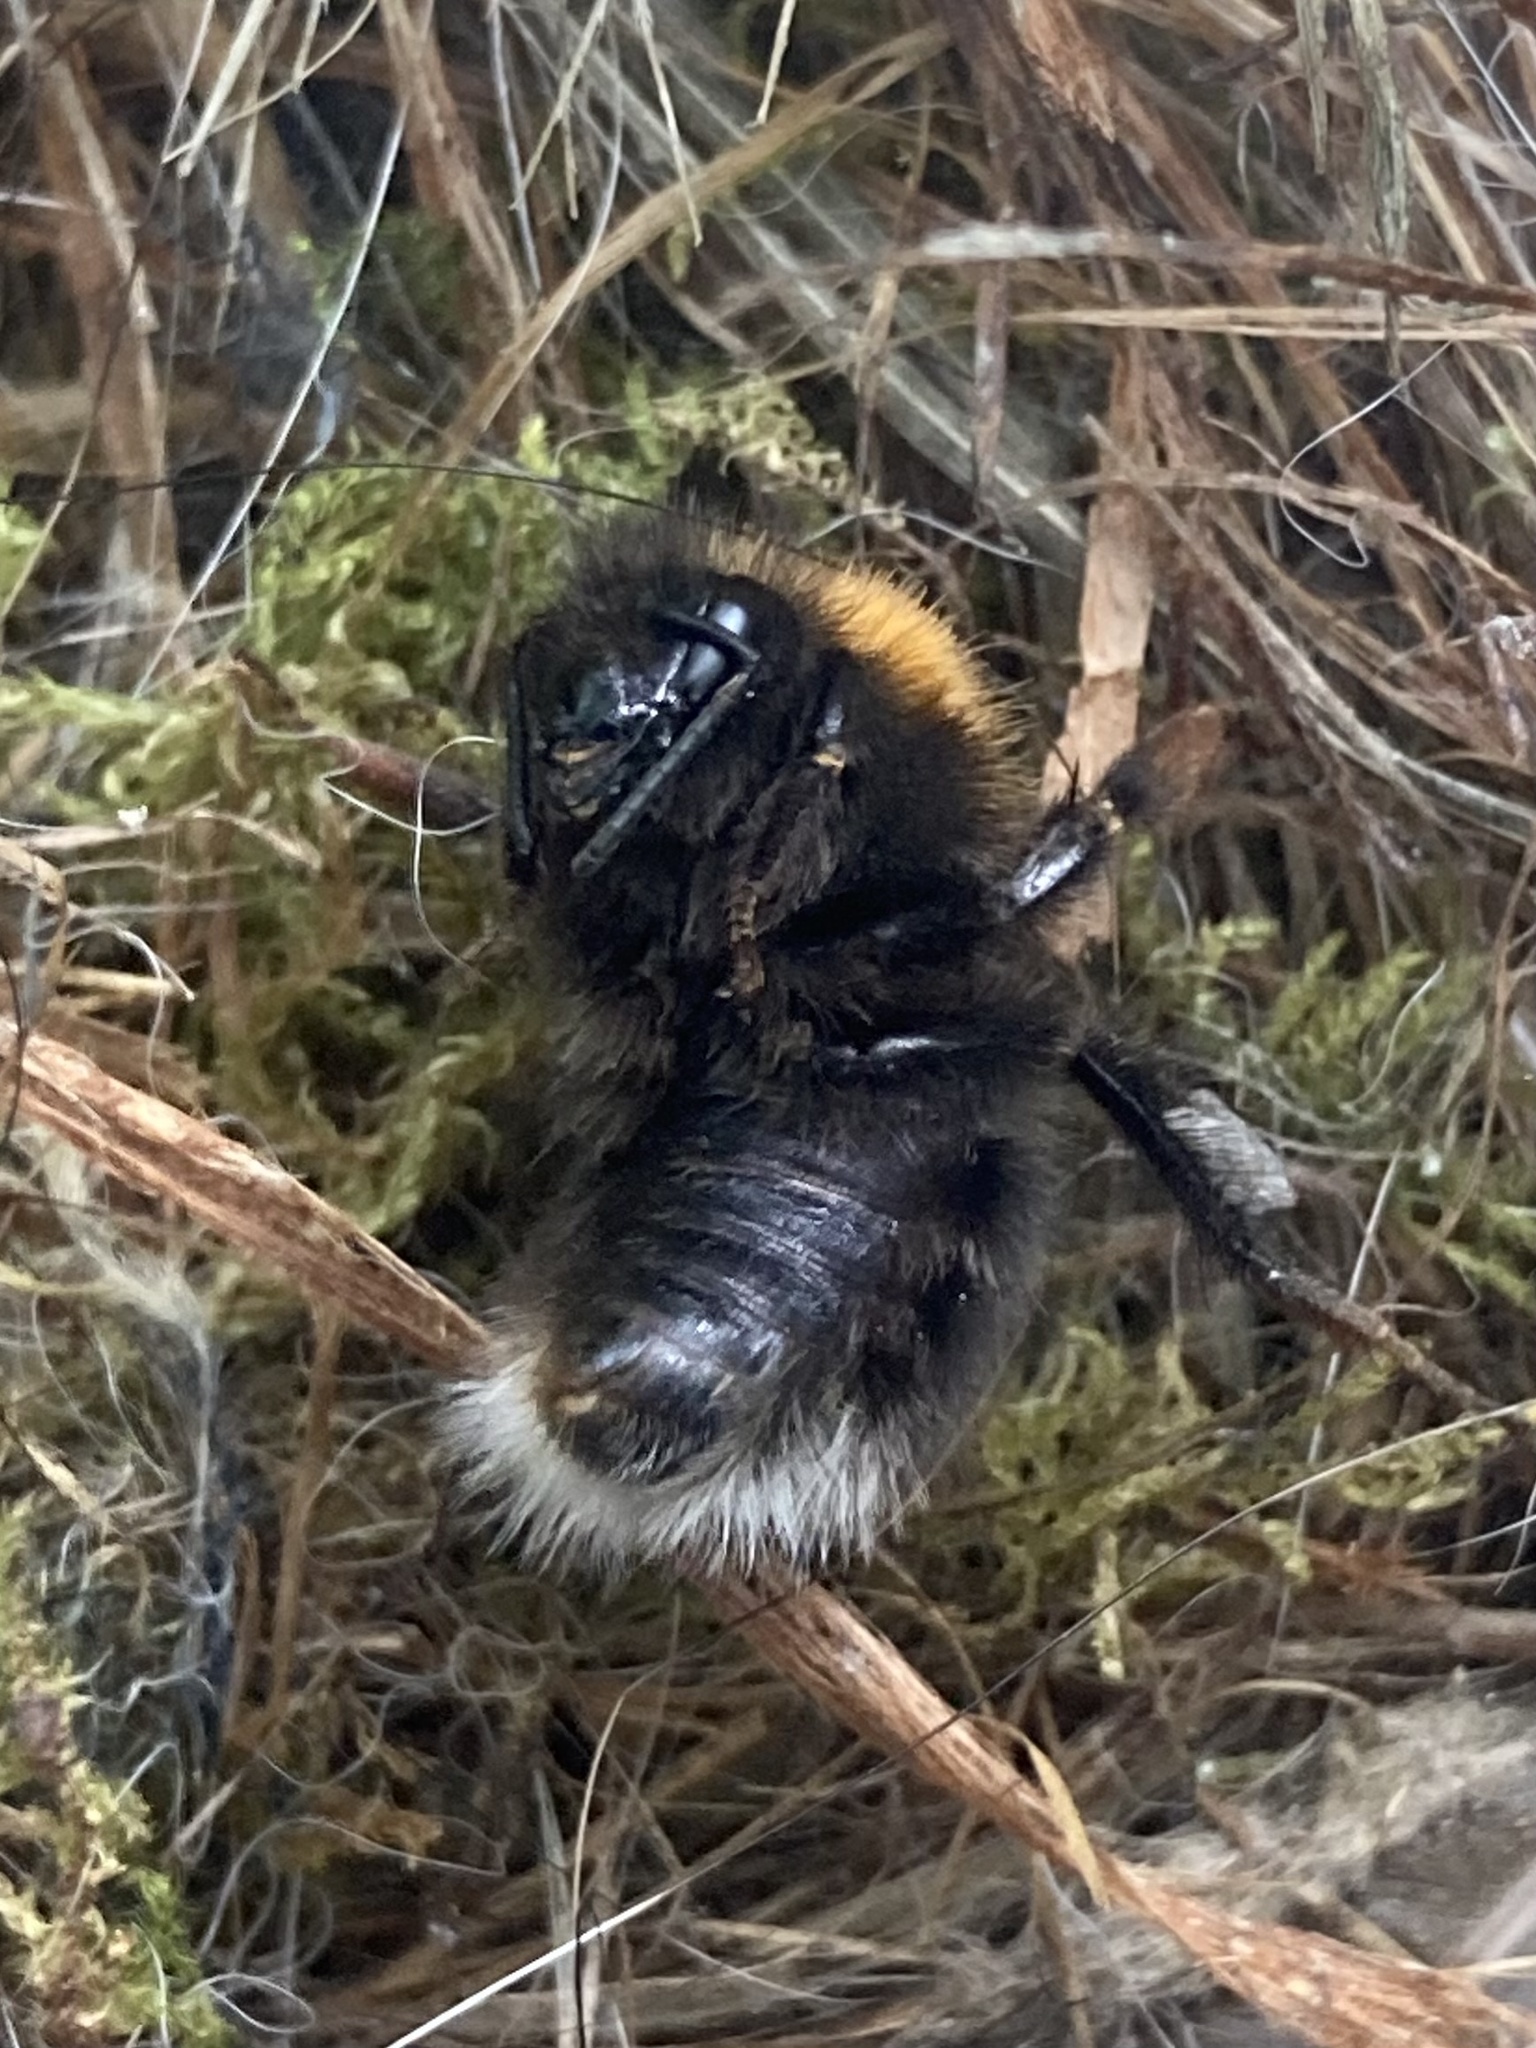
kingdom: Animalia
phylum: Arthropoda
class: Insecta
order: Hymenoptera
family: Apidae
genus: Bombus
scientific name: Bombus hypnorum
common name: New garden bumblebee
